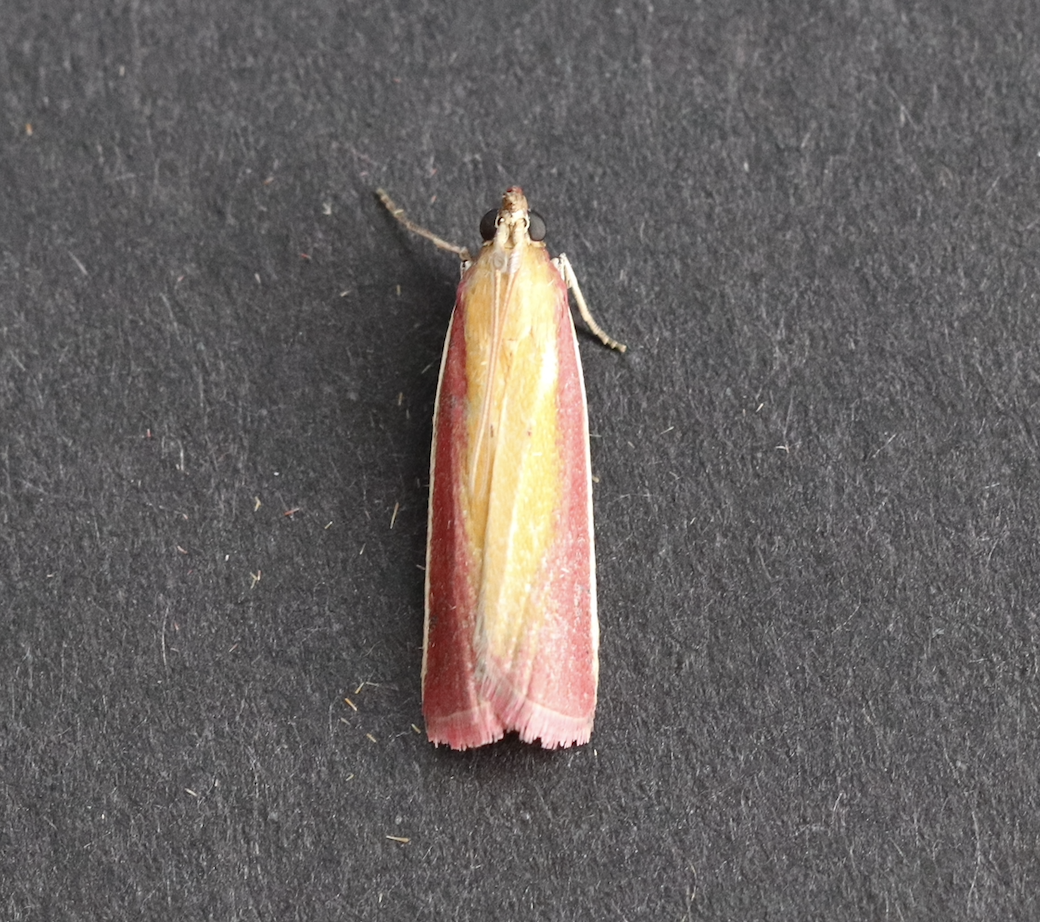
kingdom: Animalia
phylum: Arthropoda
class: Insecta
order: Lepidoptera
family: Pyralidae
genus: Oncocera
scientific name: Oncocera semirubella
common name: Rosy-striped knot-horn
